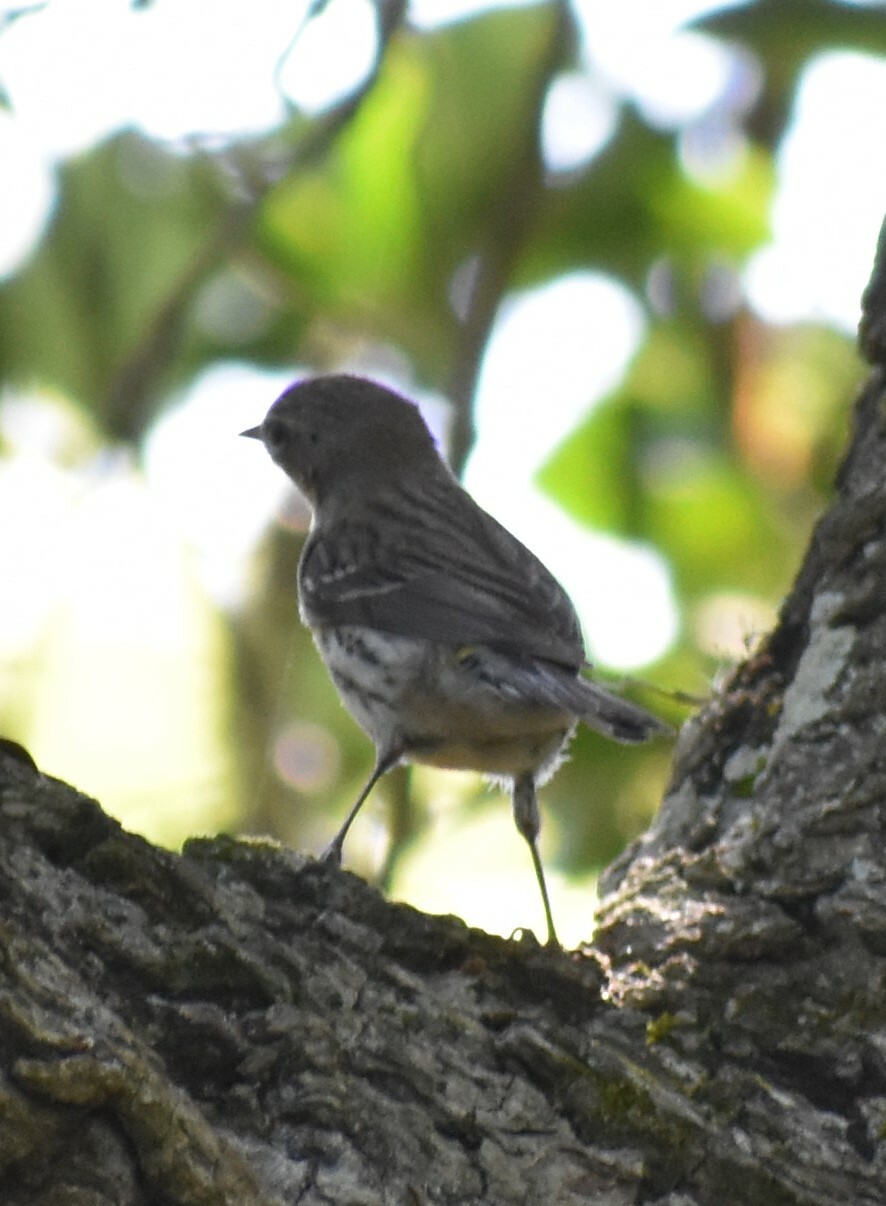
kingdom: Animalia
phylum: Chordata
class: Aves
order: Passeriformes
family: Parulidae
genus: Setophaga
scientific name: Setophaga coronata
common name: Myrtle warbler
